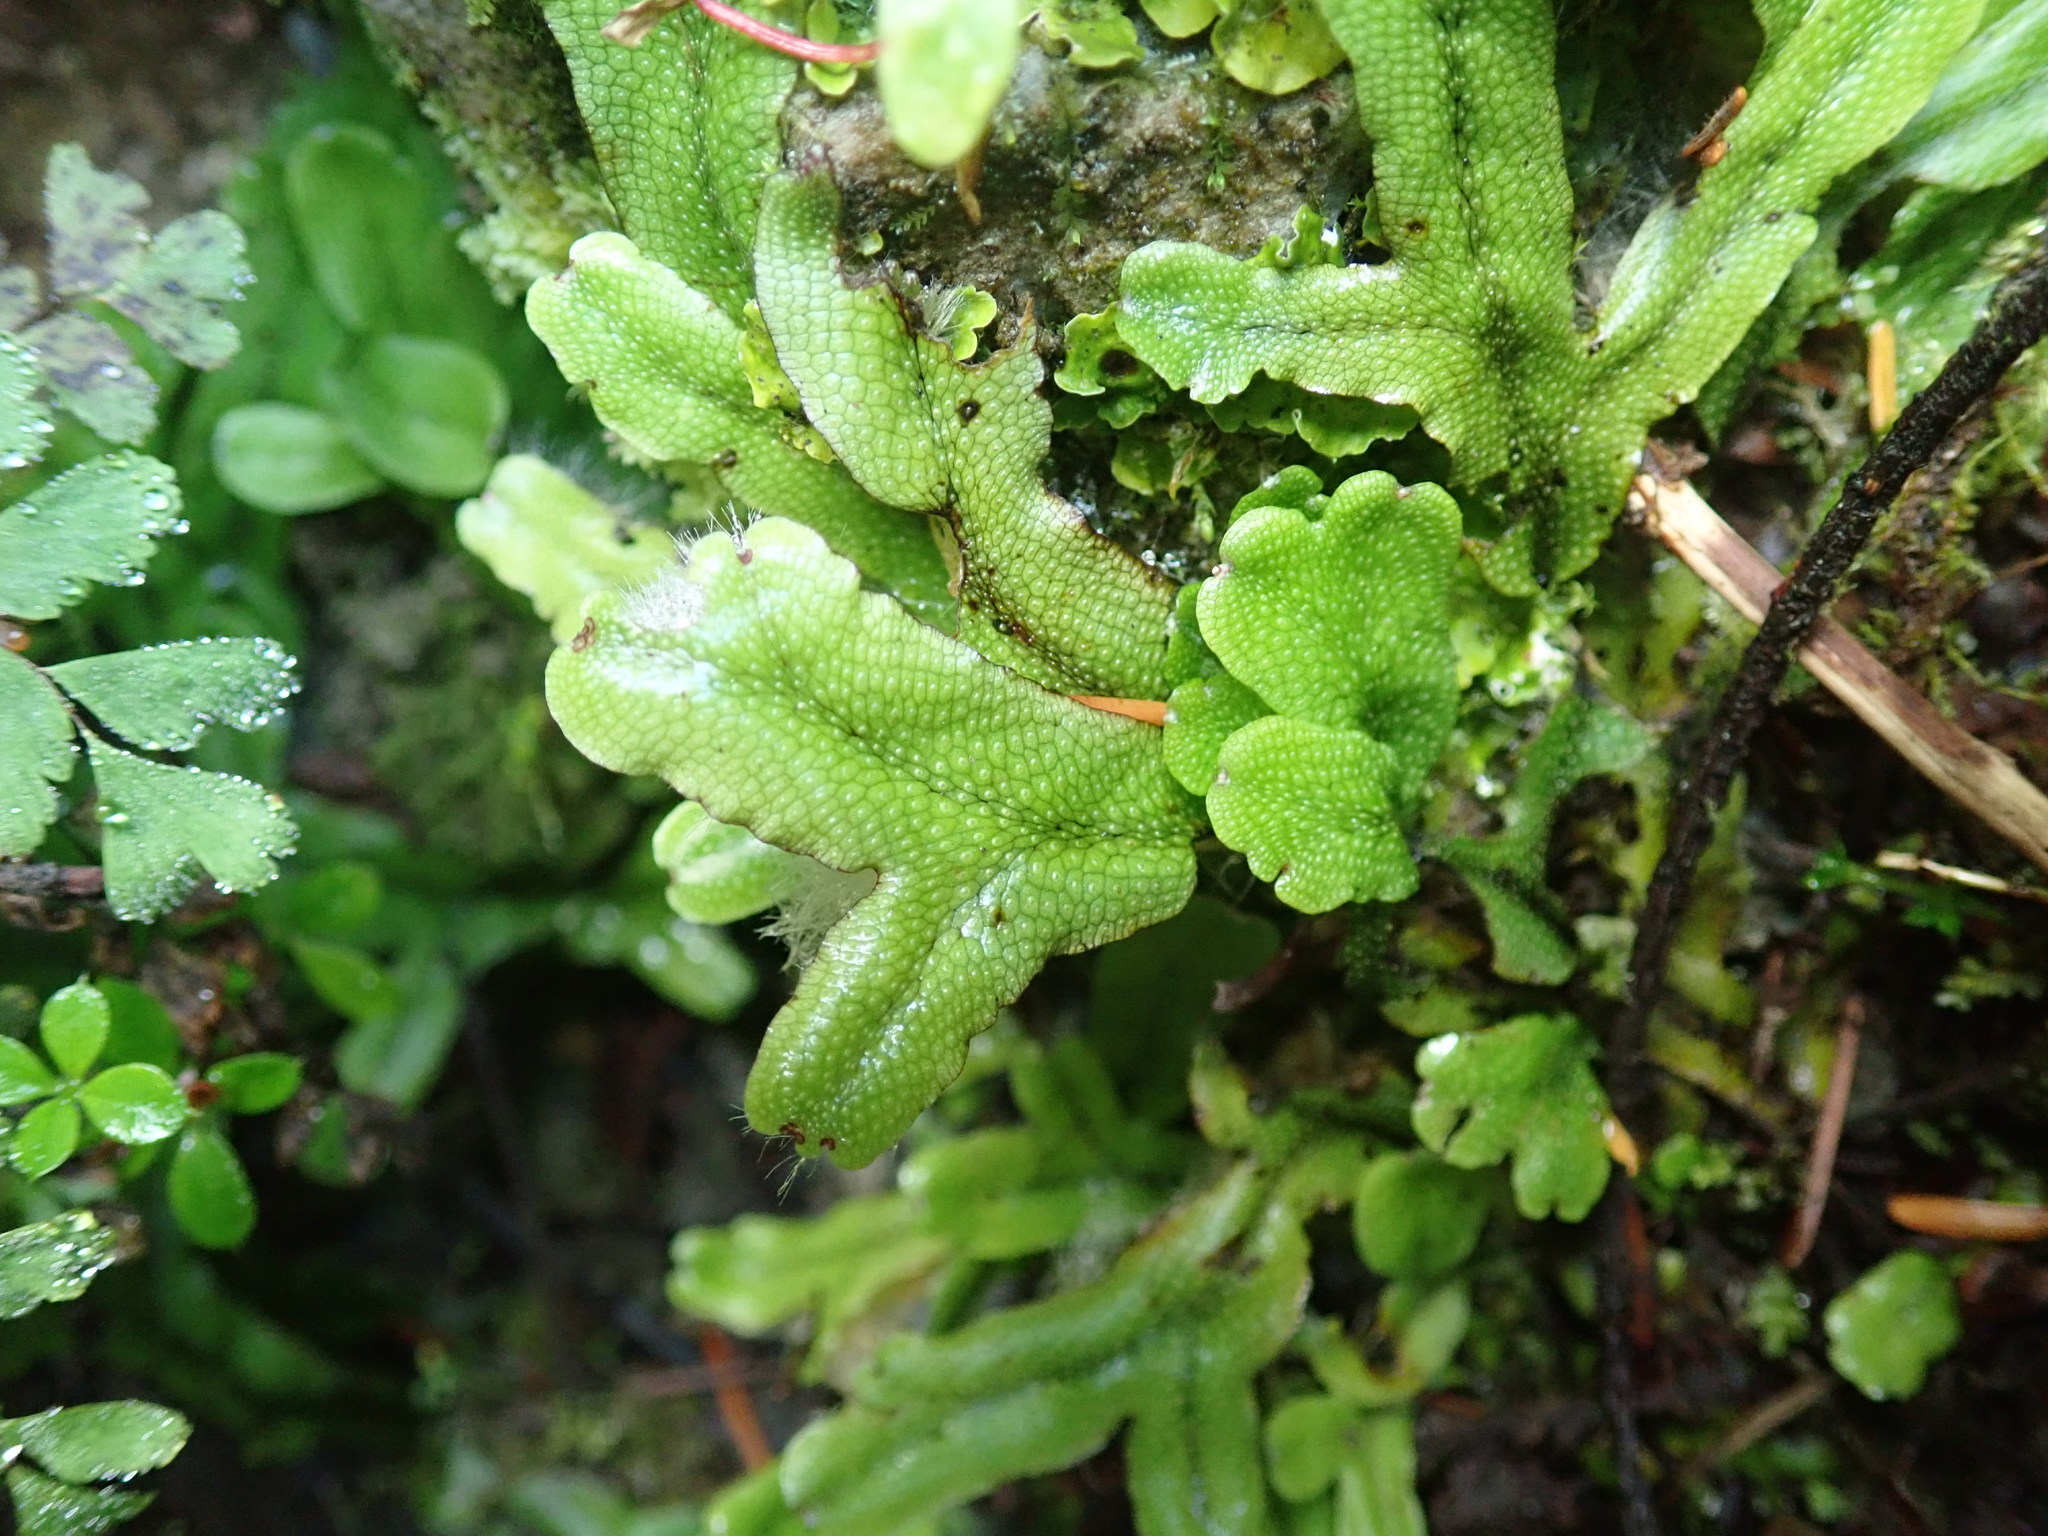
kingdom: Plantae
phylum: Marchantiophyta
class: Marchantiopsida
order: Marchantiales
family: Conocephalaceae
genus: Conocephalum
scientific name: Conocephalum salebrosum
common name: Cat-tongue liverwort
